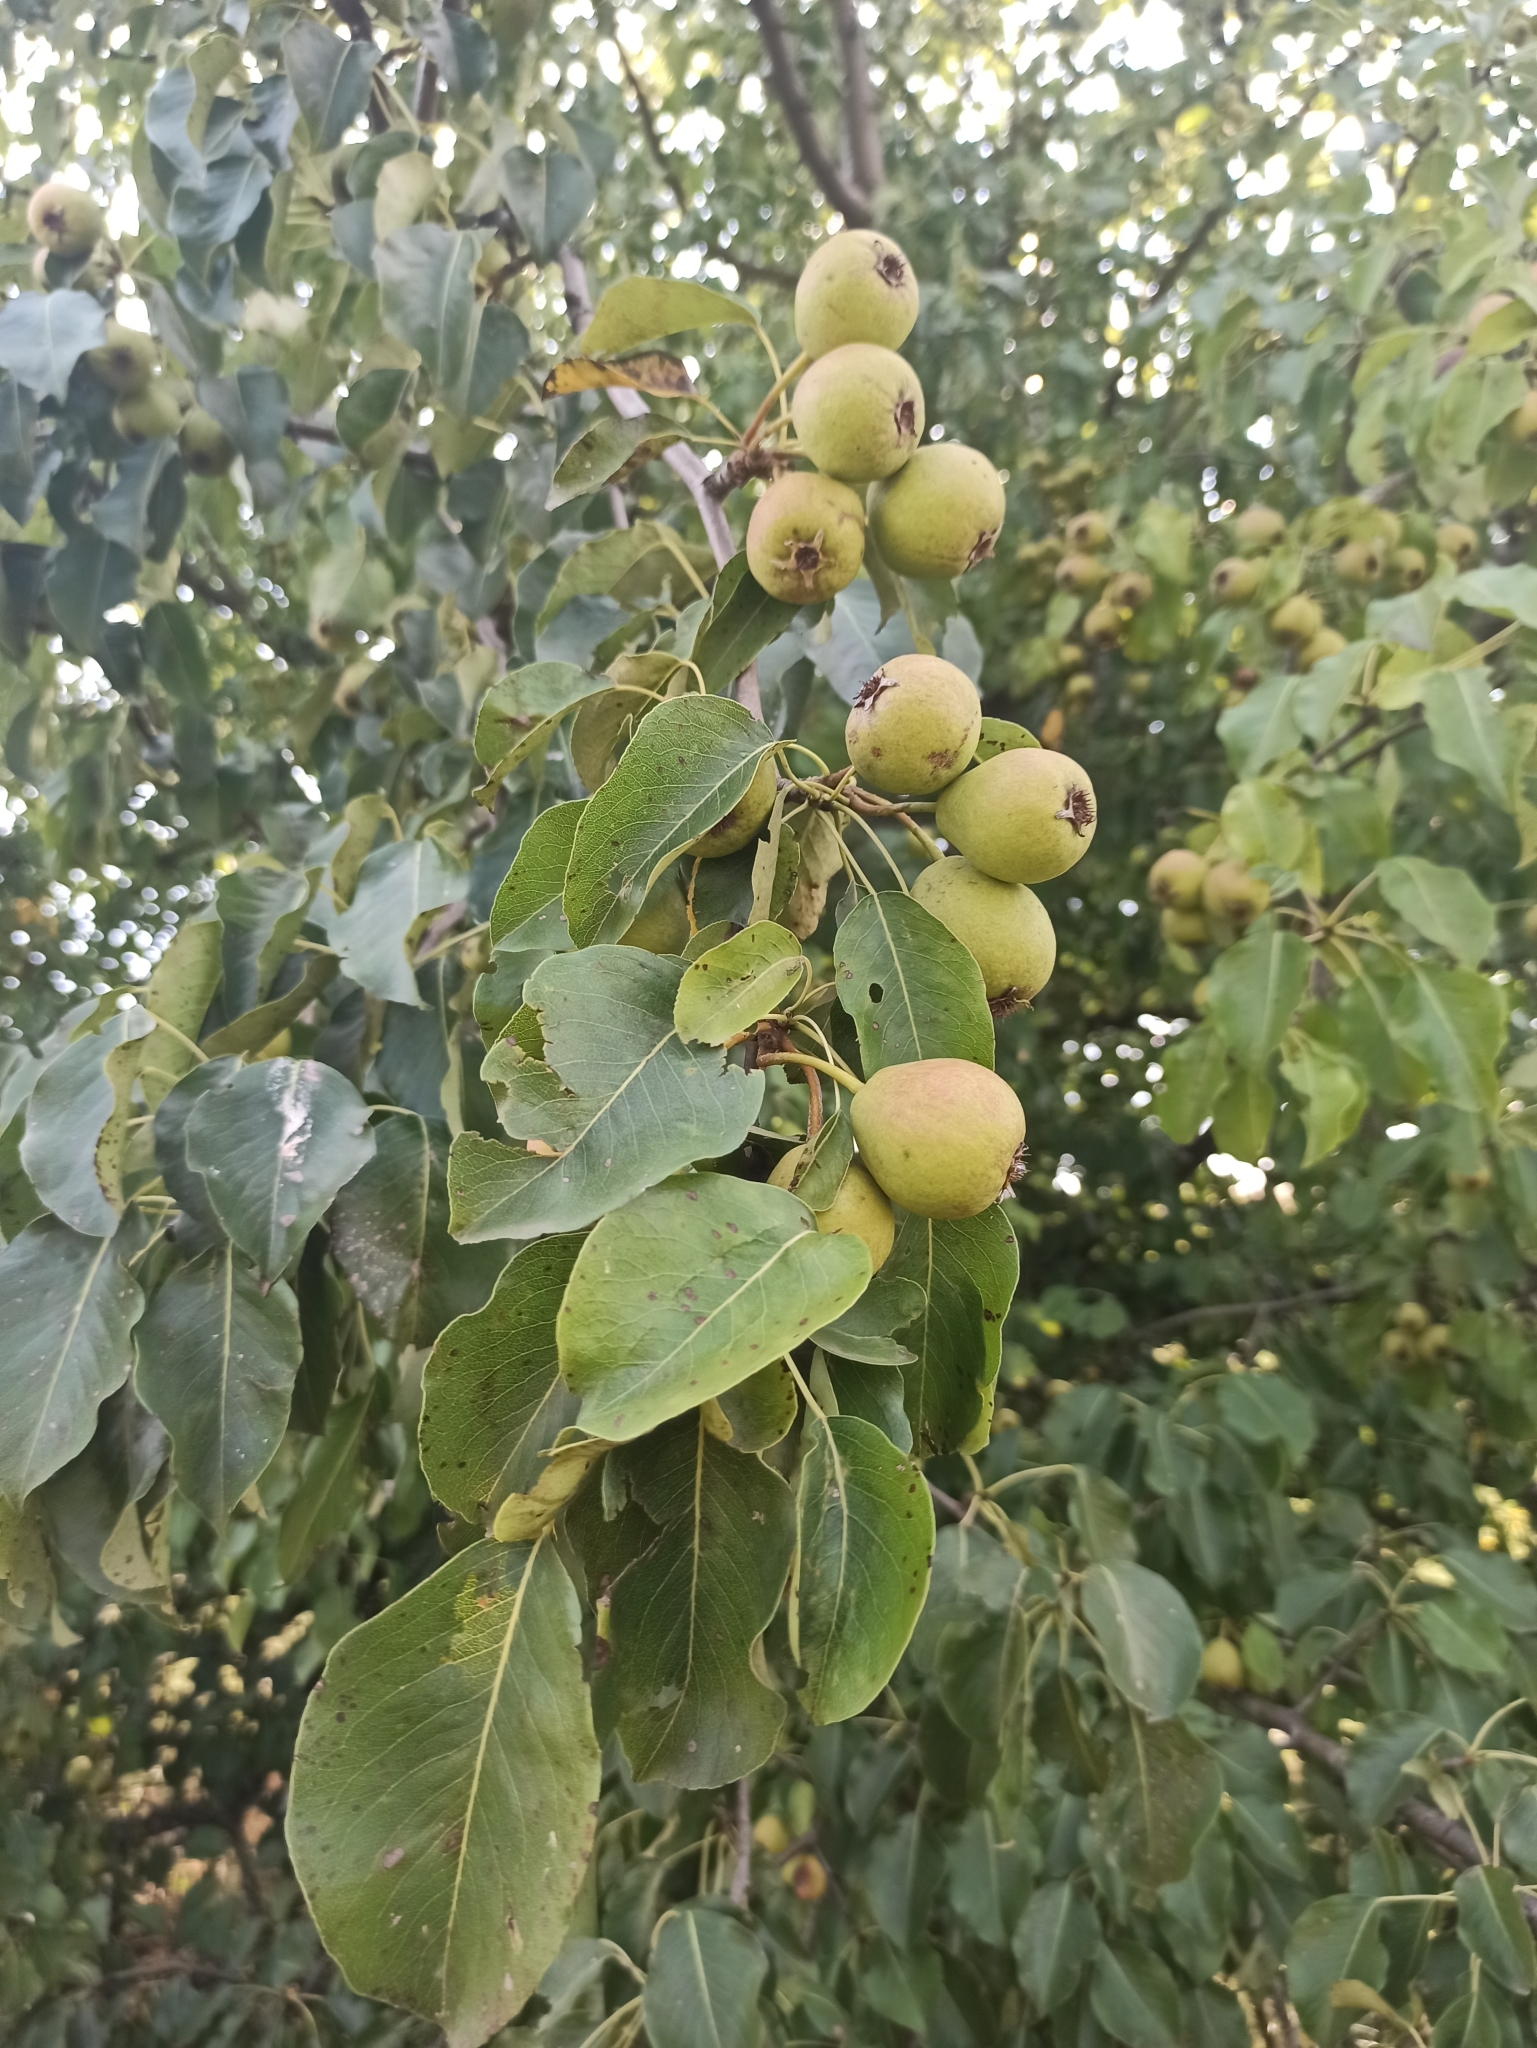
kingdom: Plantae
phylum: Tracheophyta
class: Magnoliopsida
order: Rosales
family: Rosaceae
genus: Pyrus
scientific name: Pyrus communis
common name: Pear
